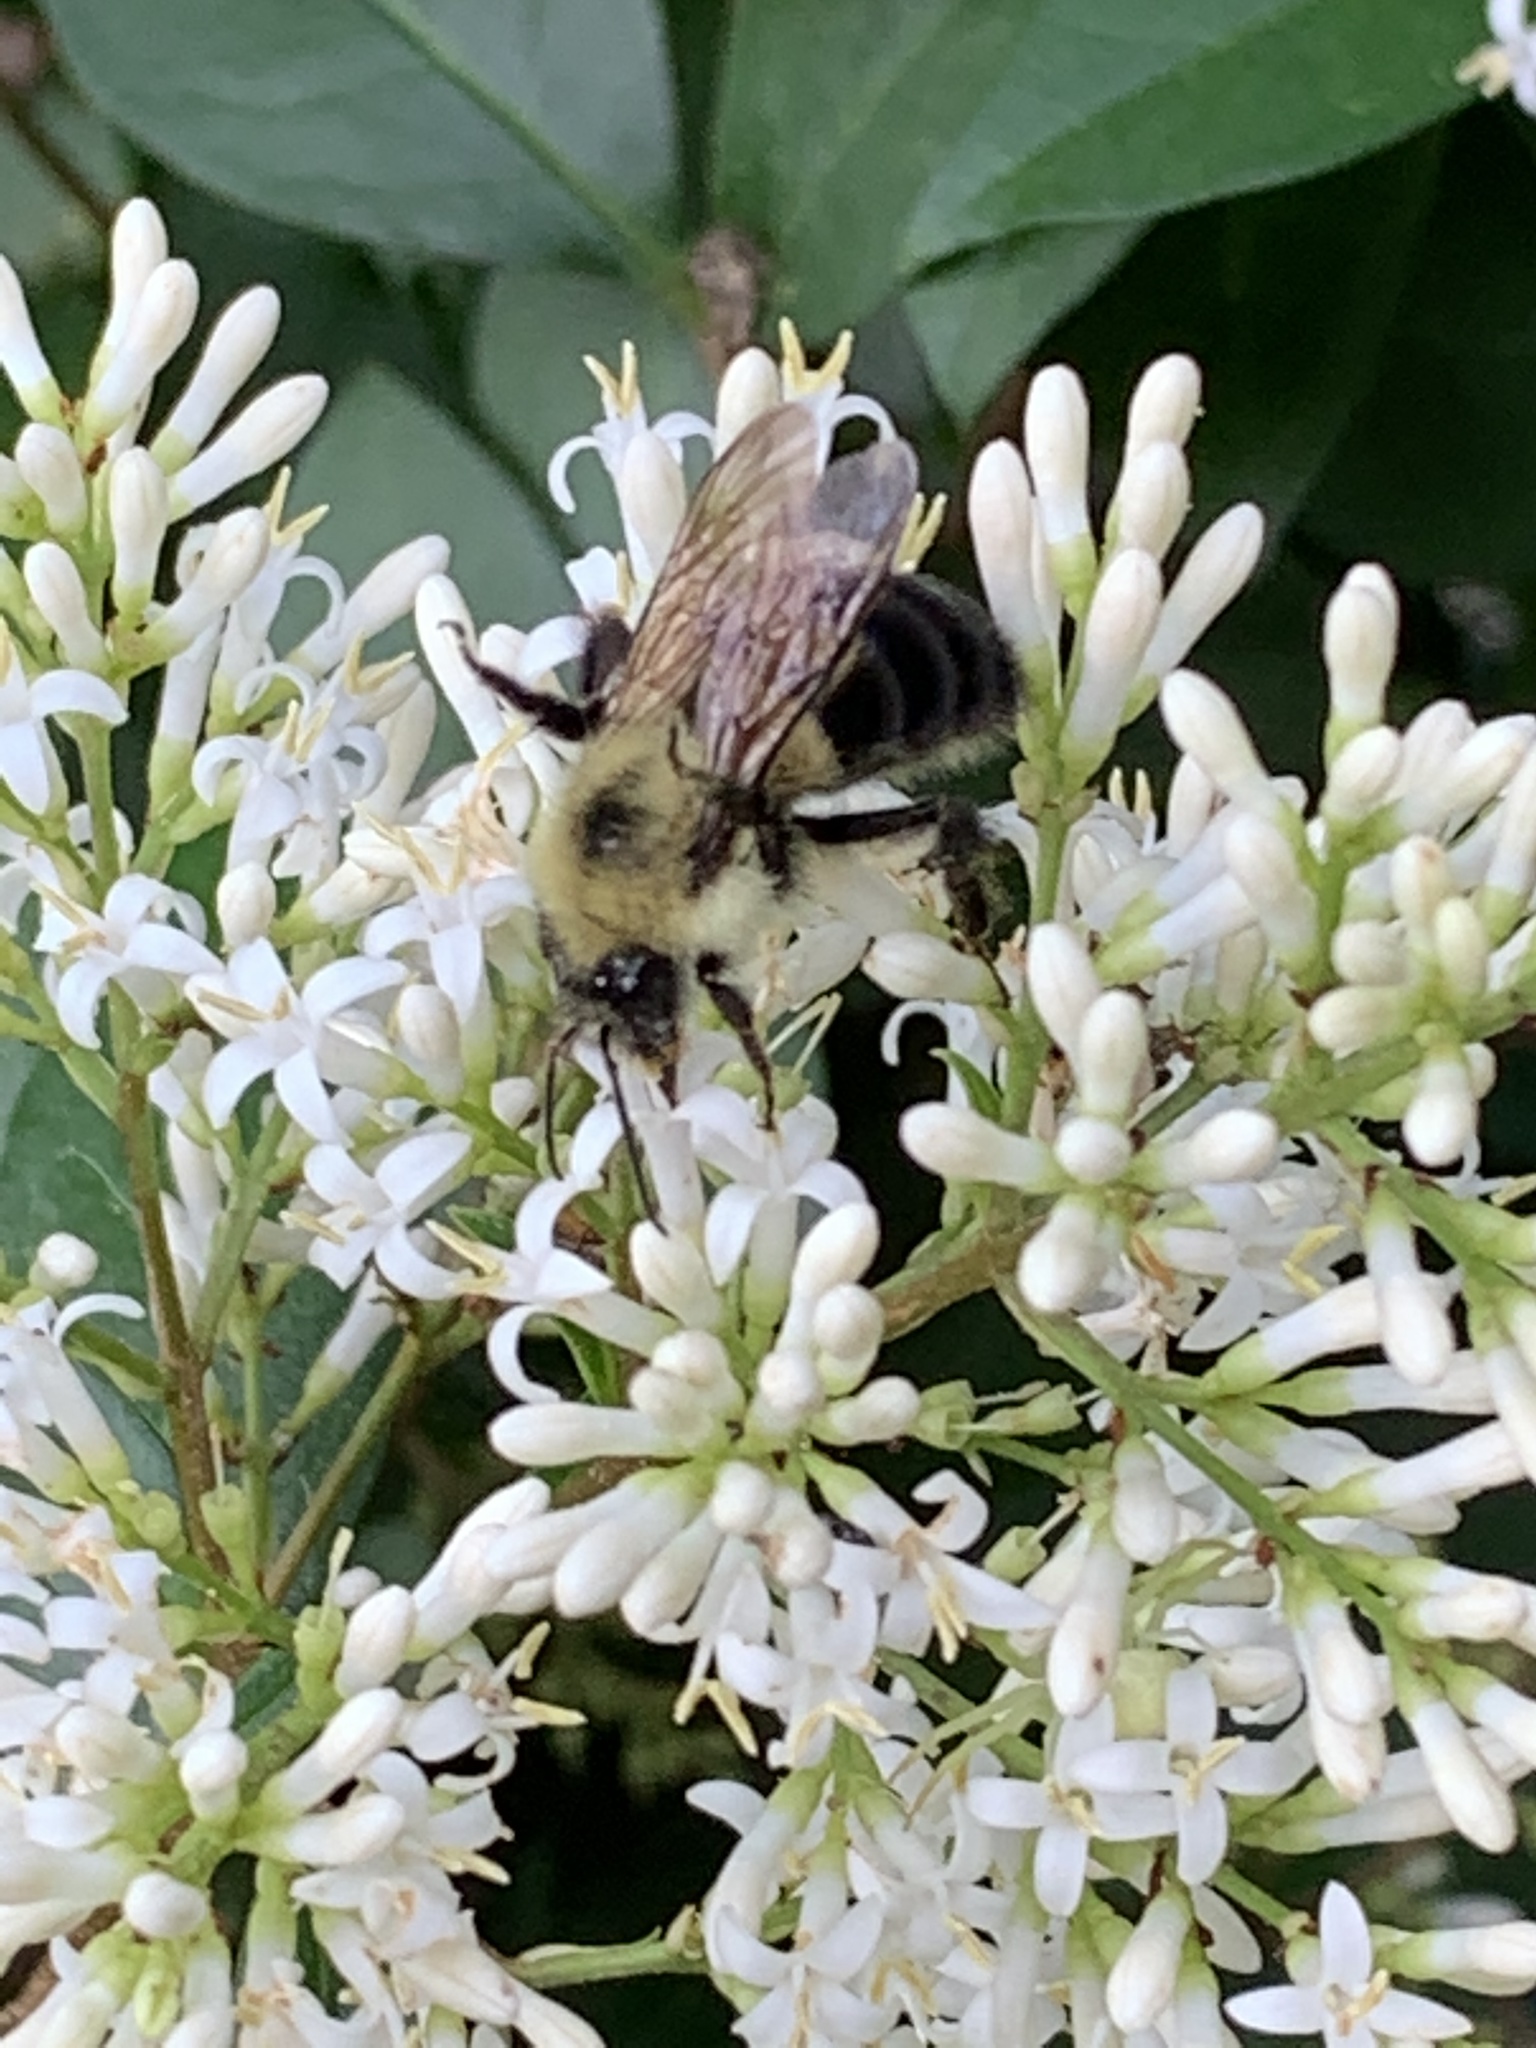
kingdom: Animalia
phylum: Arthropoda
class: Insecta
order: Hymenoptera
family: Apidae
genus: Bombus
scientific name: Bombus bimaculatus
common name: Two-spotted bumble bee
